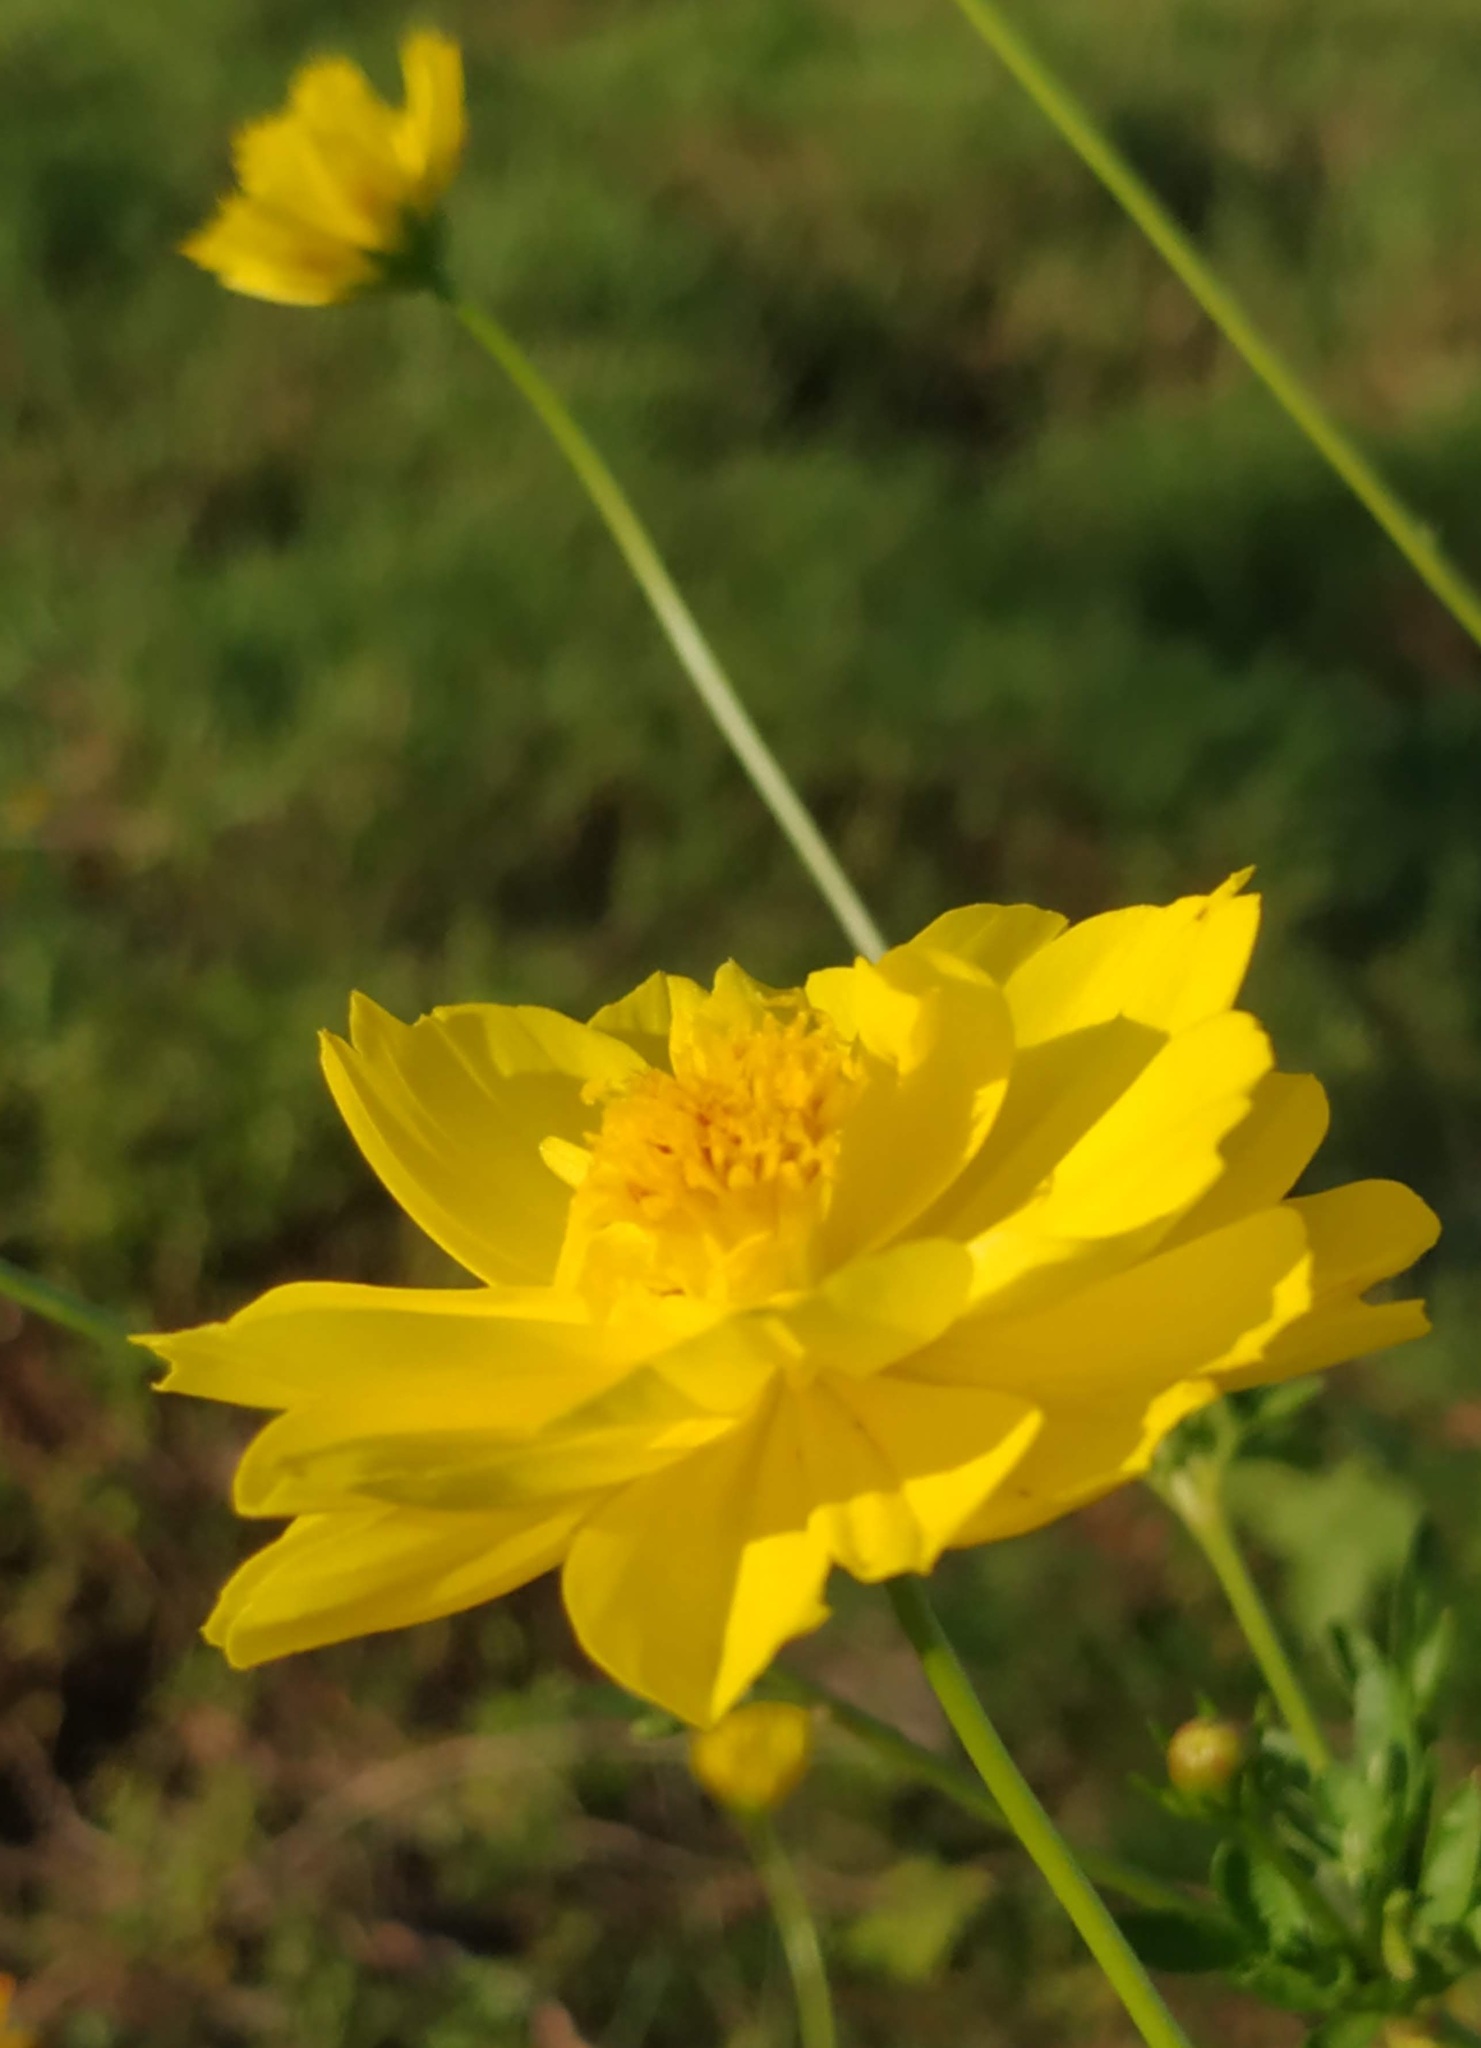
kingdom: Plantae
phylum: Tracheophyta
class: Magnoliopsida
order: Asterales
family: Asteraceae
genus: Cosmos
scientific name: Cosmos sulphureus
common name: Sulphur cosmos
